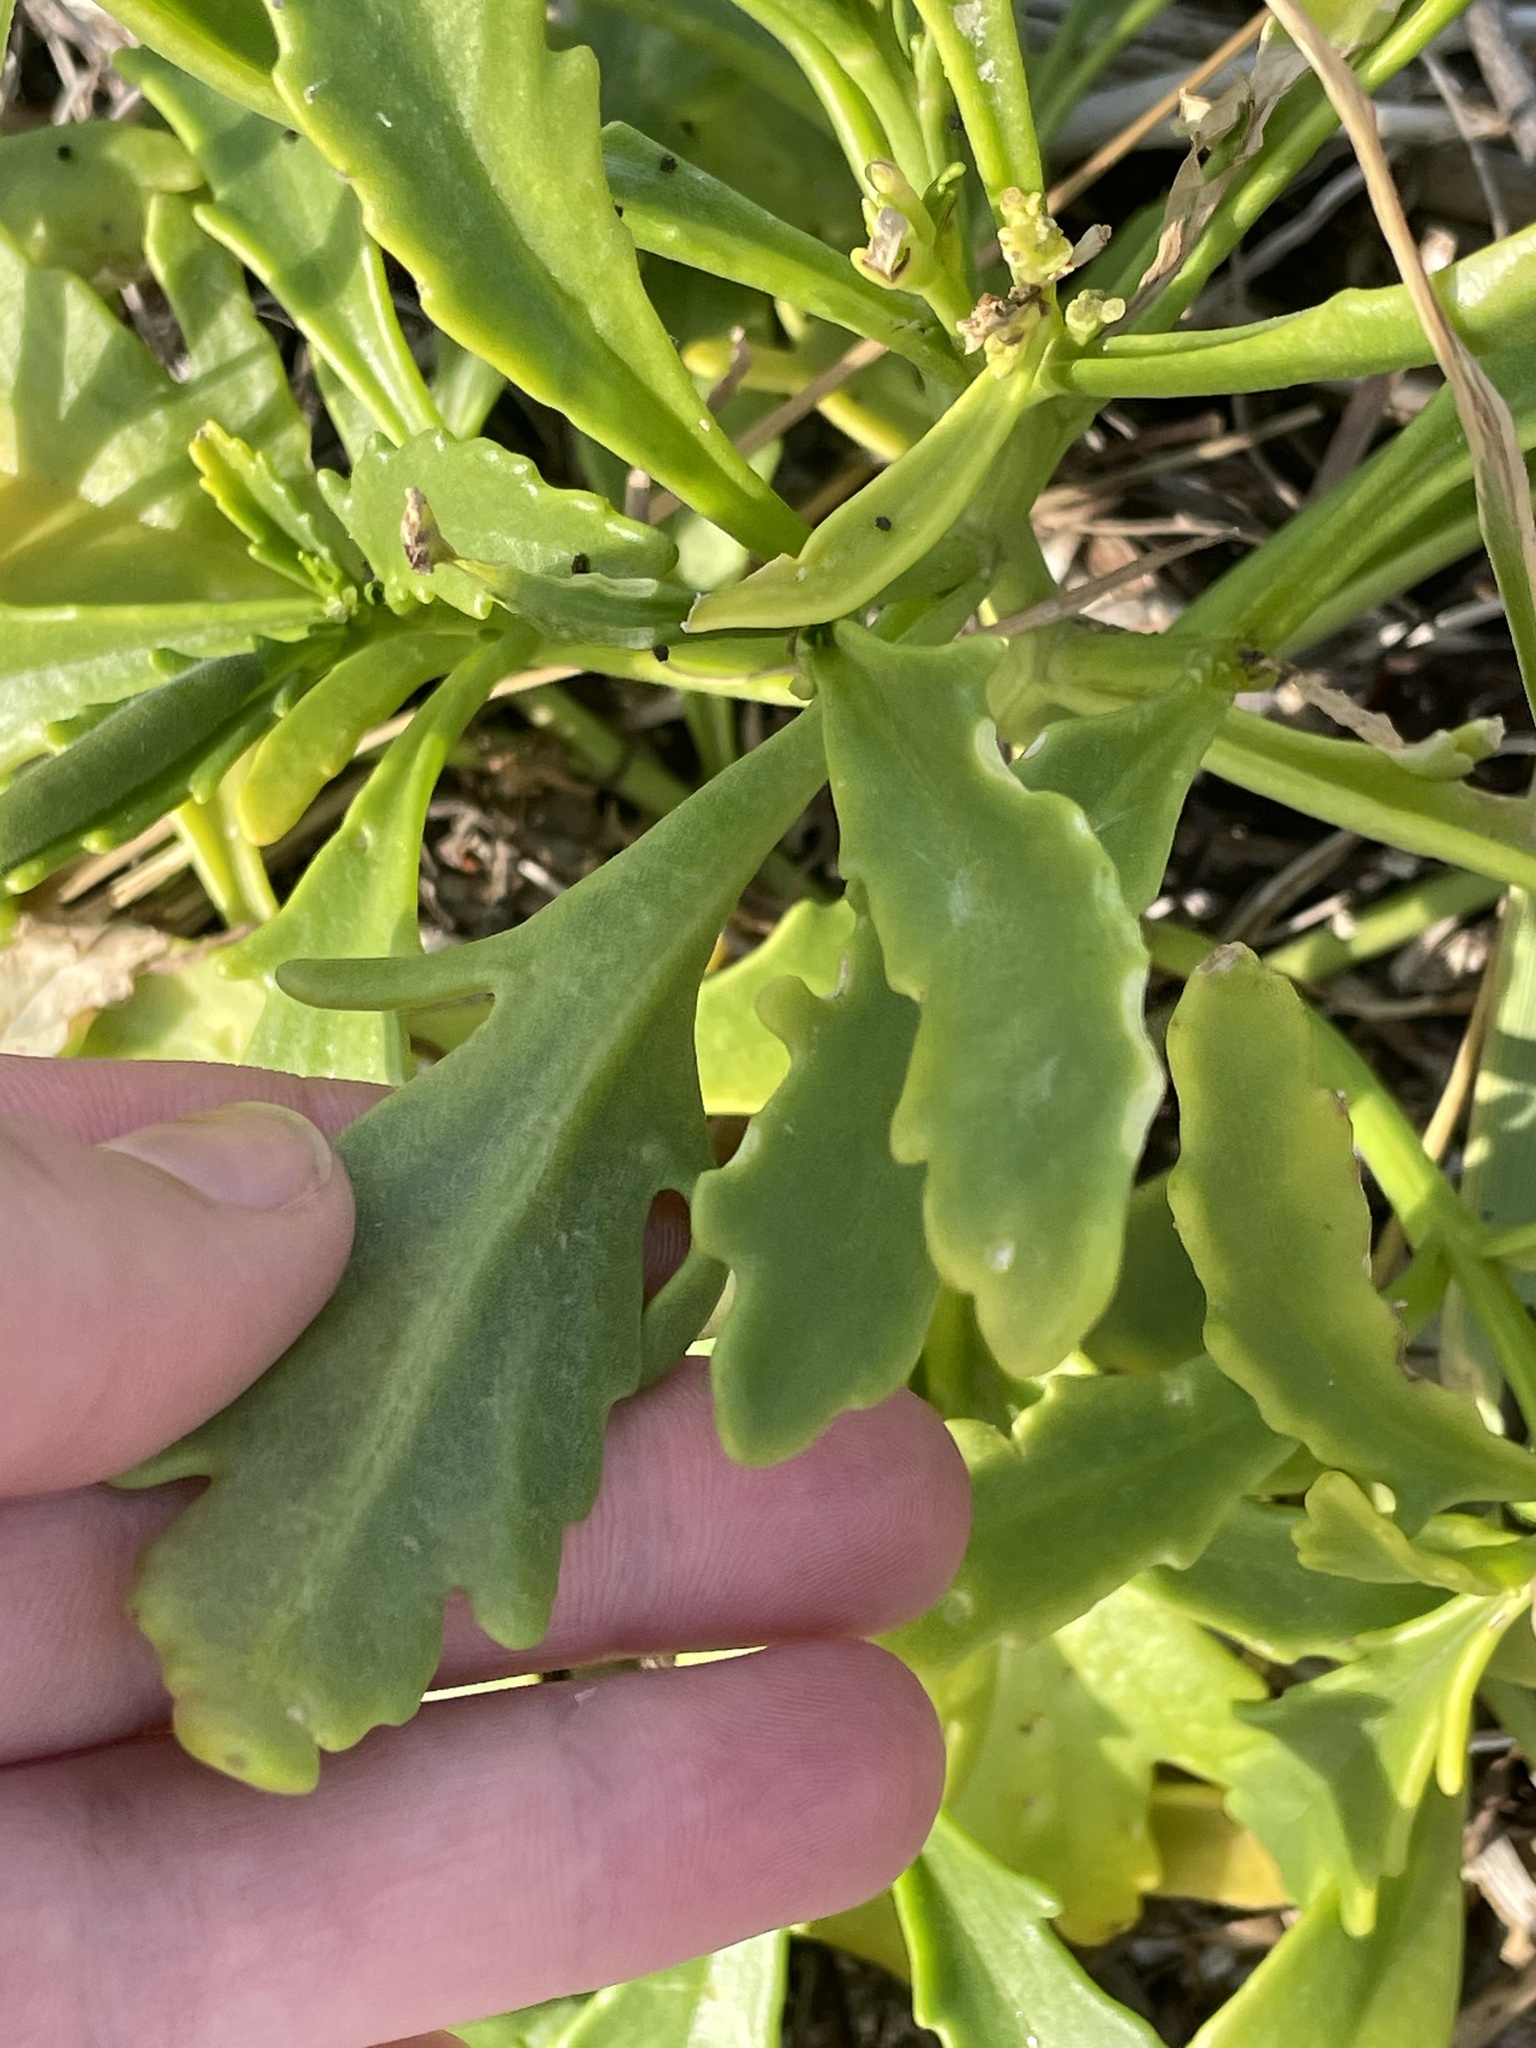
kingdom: Plantae
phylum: Tracheophyta
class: Magnoliopsida
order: Brassicales
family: Brassicaceae
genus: Cakile
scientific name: Cakile edentula
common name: American sea rocket
